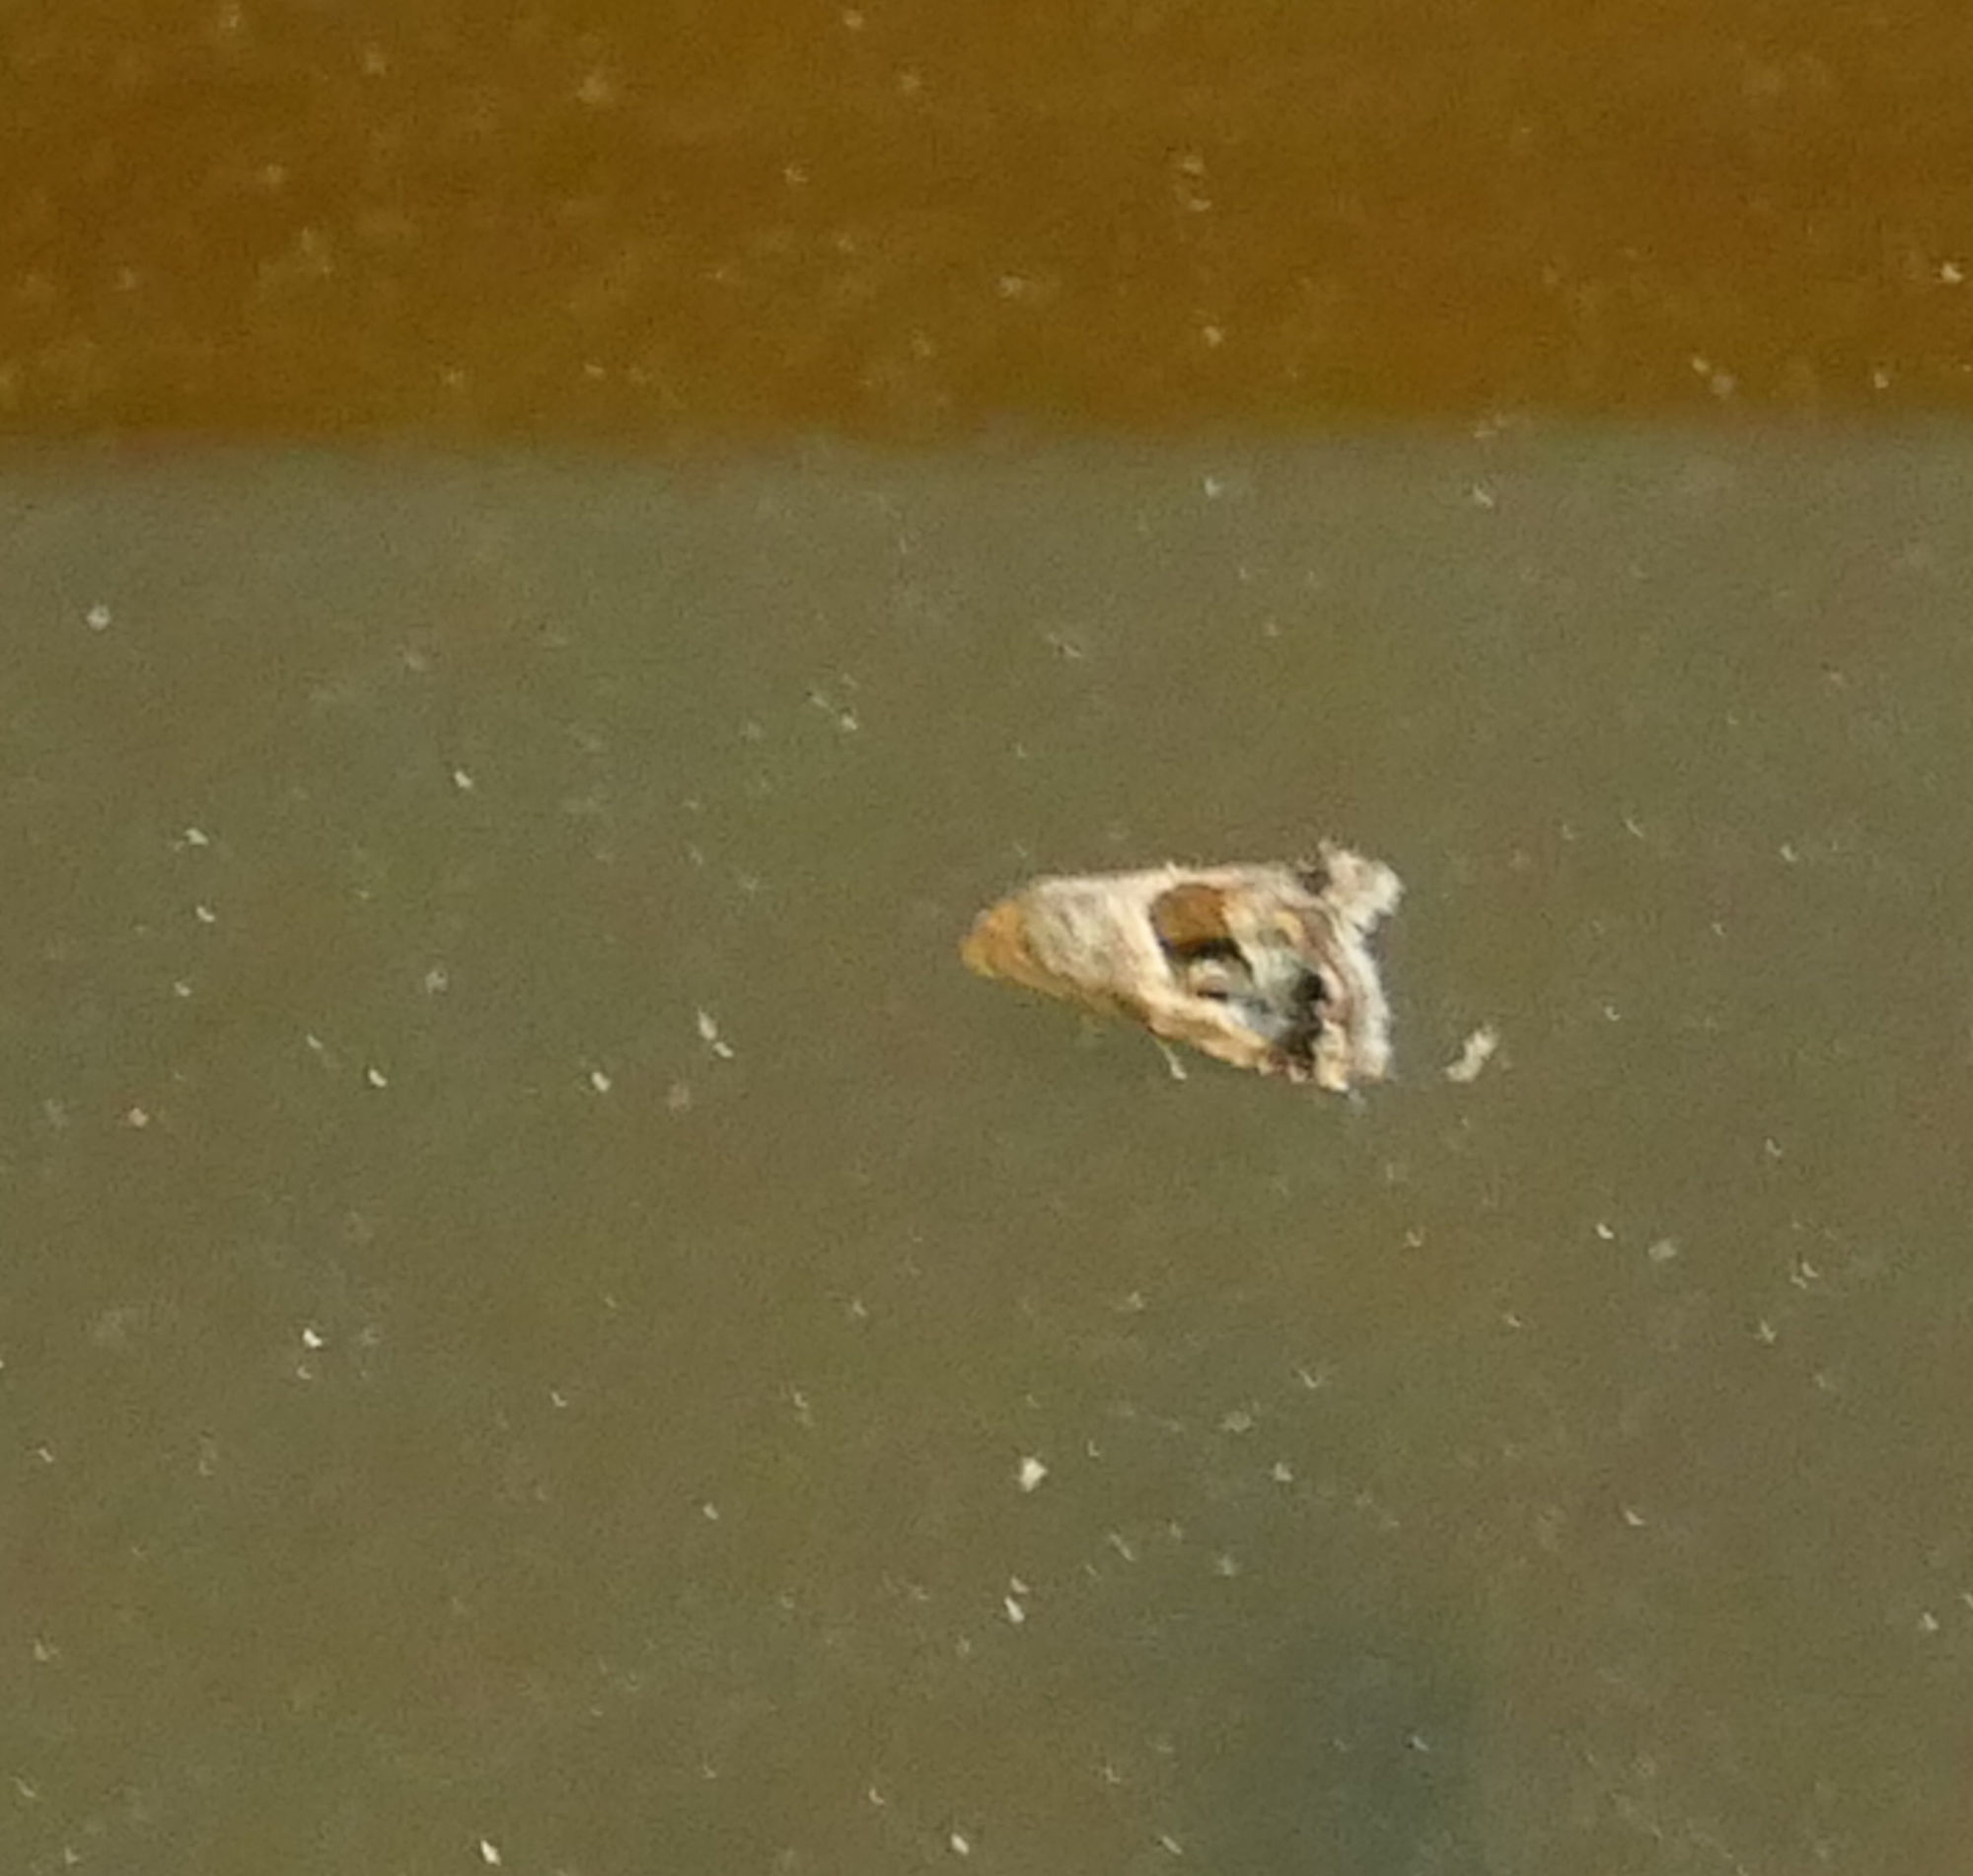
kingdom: Animalia
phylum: Arthropoda
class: Insecta
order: Lepidoptera
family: Noctuidae
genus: Tripudia
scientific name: Tripudia quadrifera
